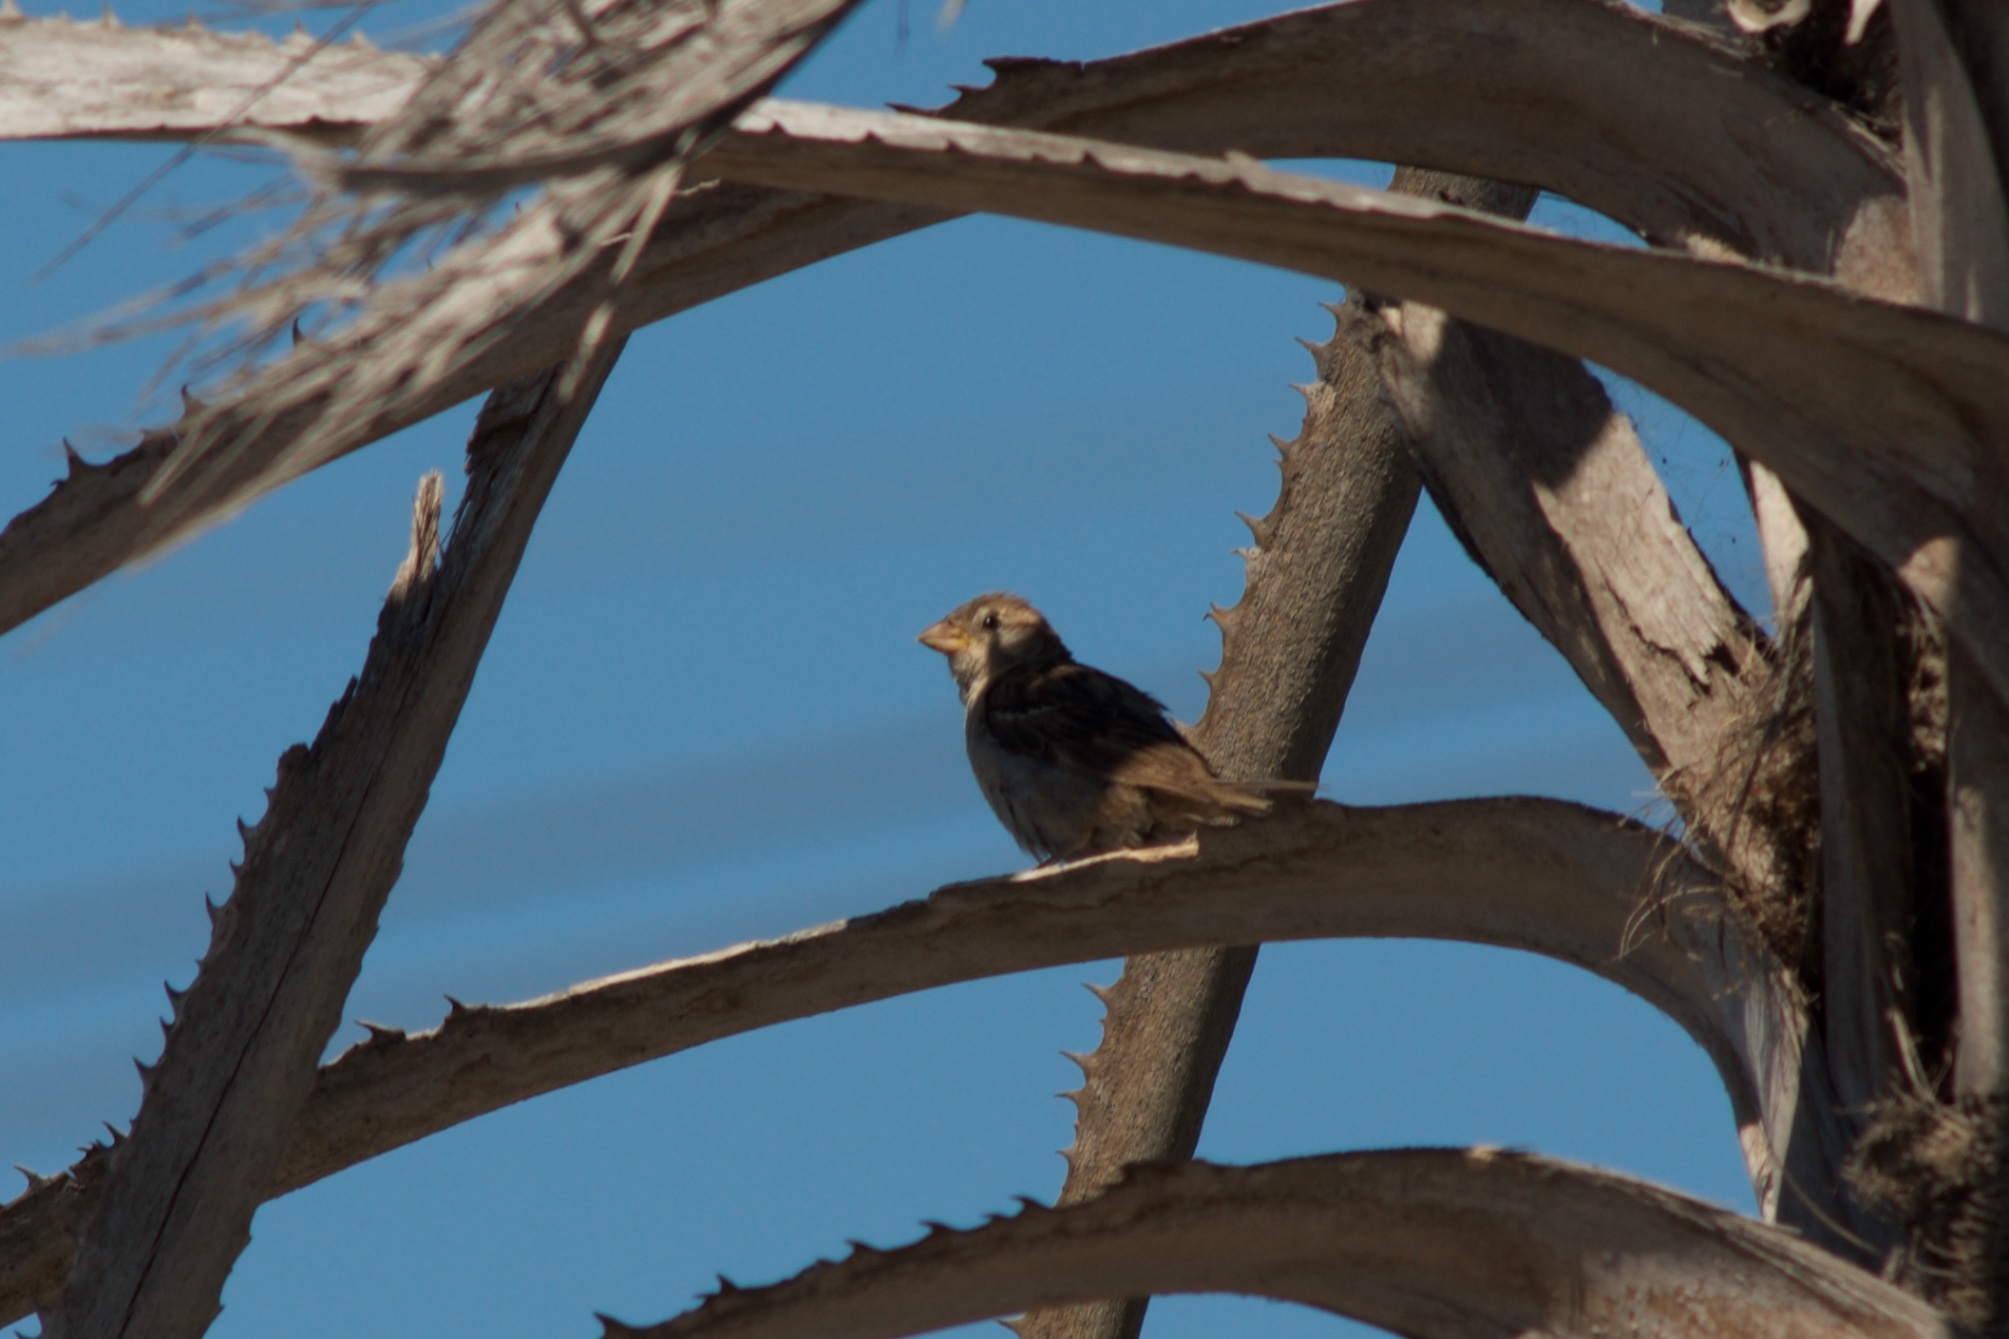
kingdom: Animalia
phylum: Chordata
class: Aves
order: Passeriformes
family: Passeridae
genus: Passer
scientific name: Passer domesticus
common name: House sparrow
